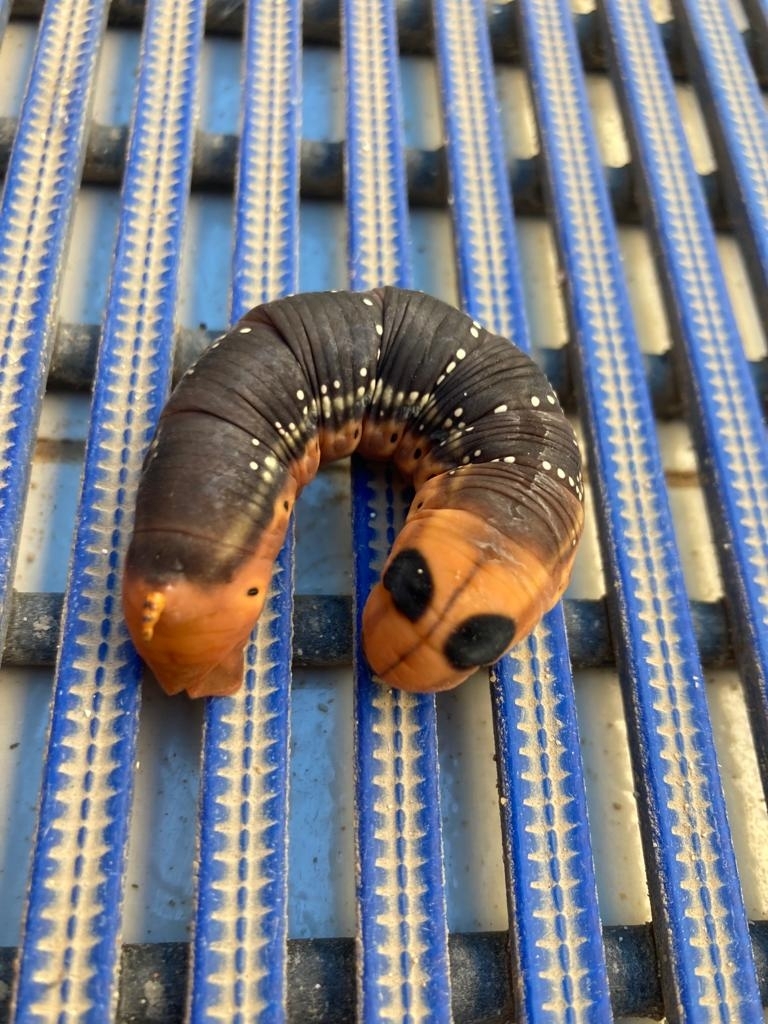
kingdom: Animalia
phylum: Arthropoda
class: Insecta
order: Lepidoptera
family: Sphingidae
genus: Daphnis
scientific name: Daphnis nerii
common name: Oleander hawk-moth
